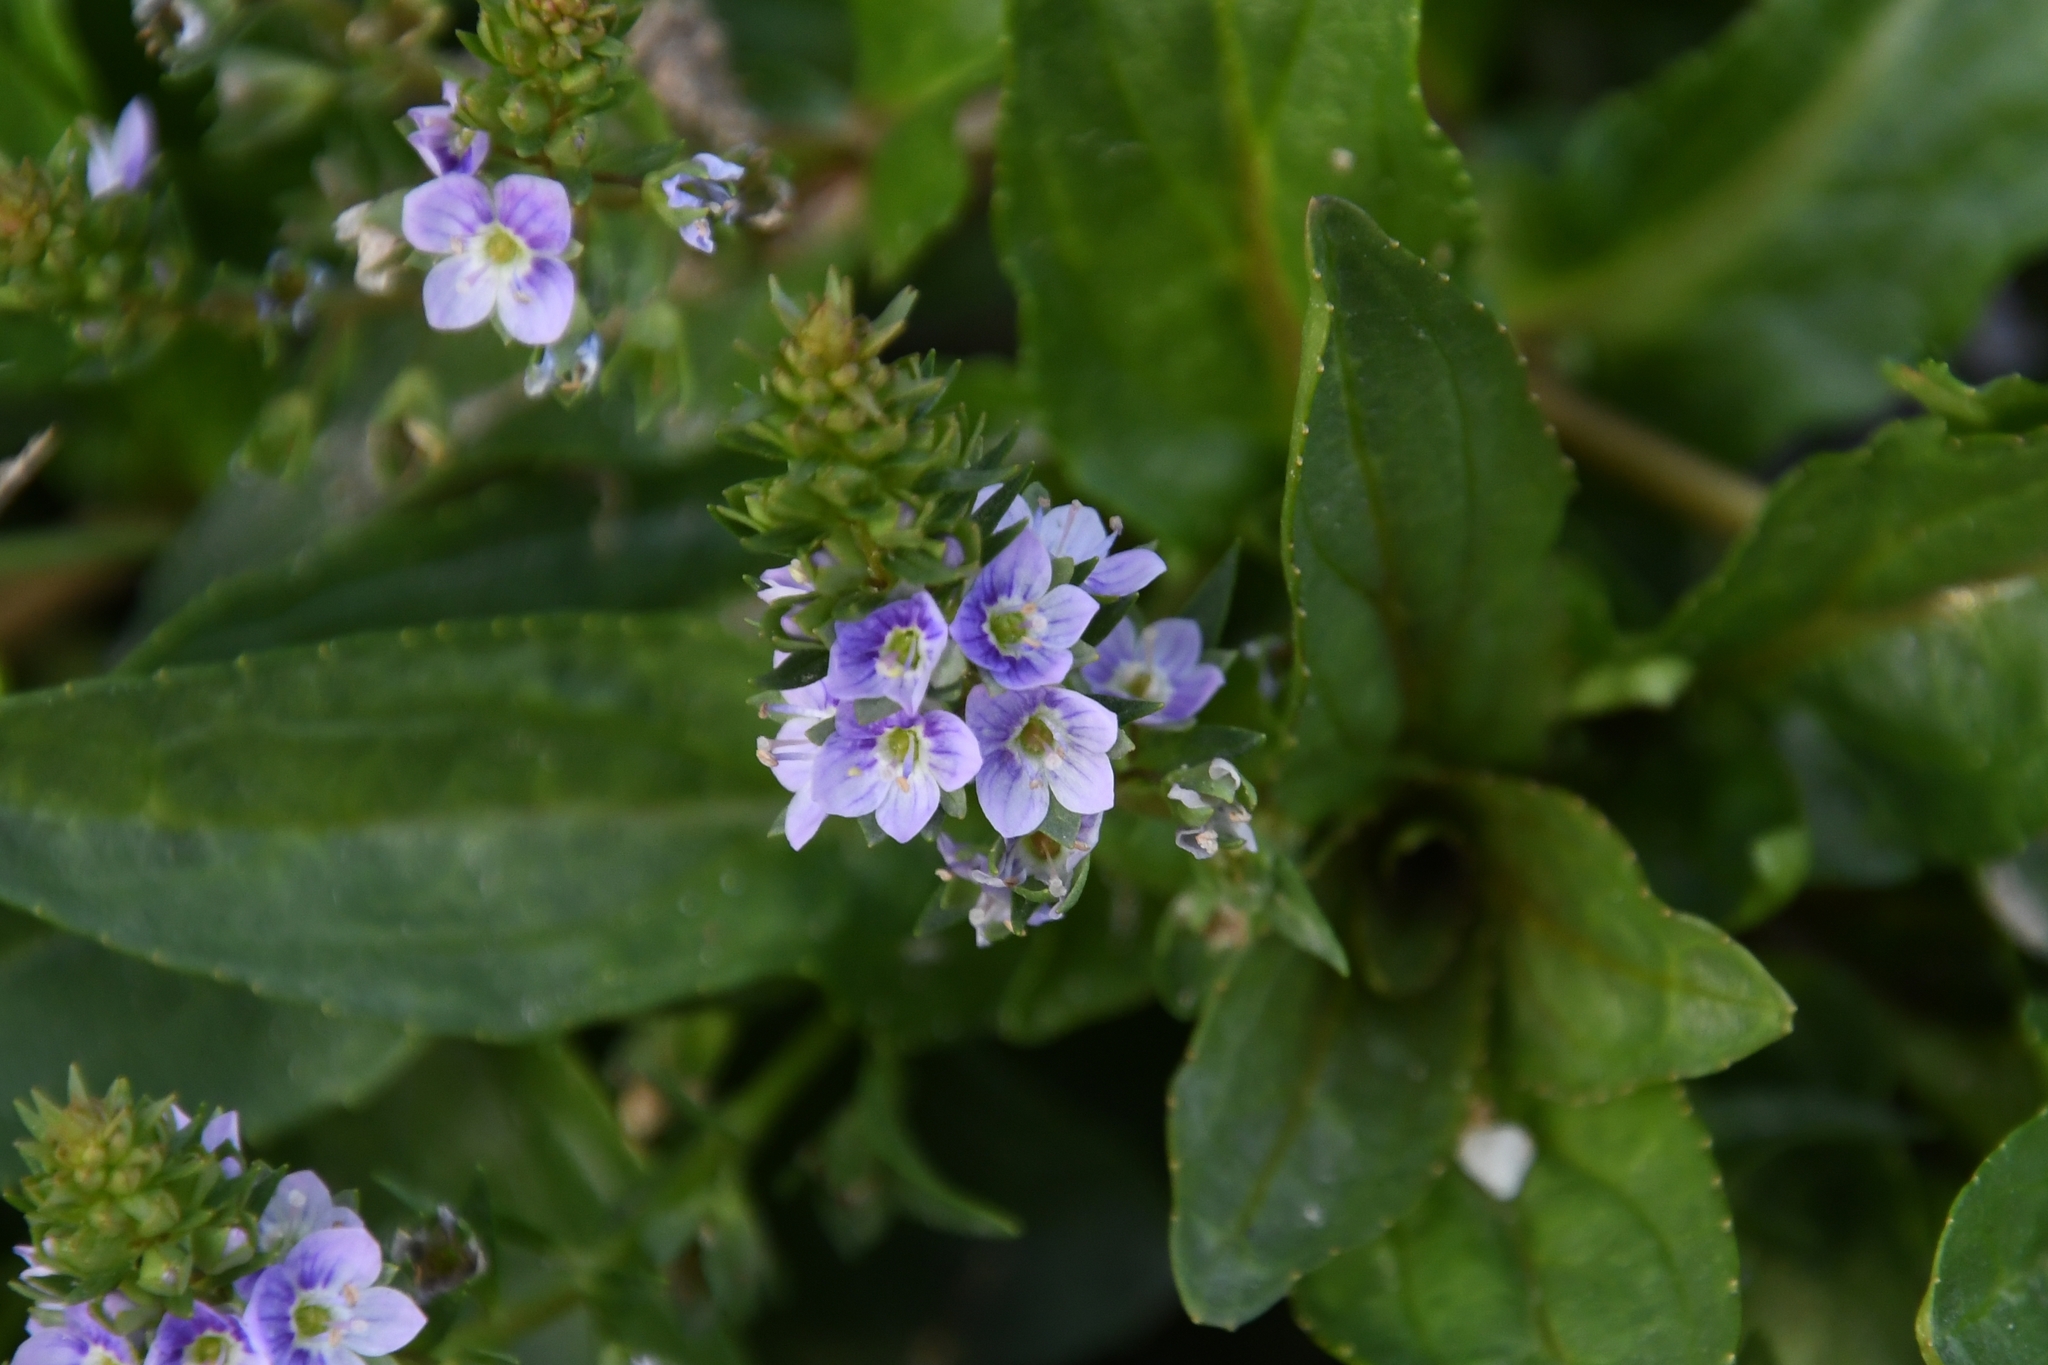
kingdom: Plantae
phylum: Tracheophyta
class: Magnoliopsida
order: Lamiales
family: Plantaginaceae
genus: Veronica
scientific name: Veronica anagallis-aquatica
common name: Water speedwell
